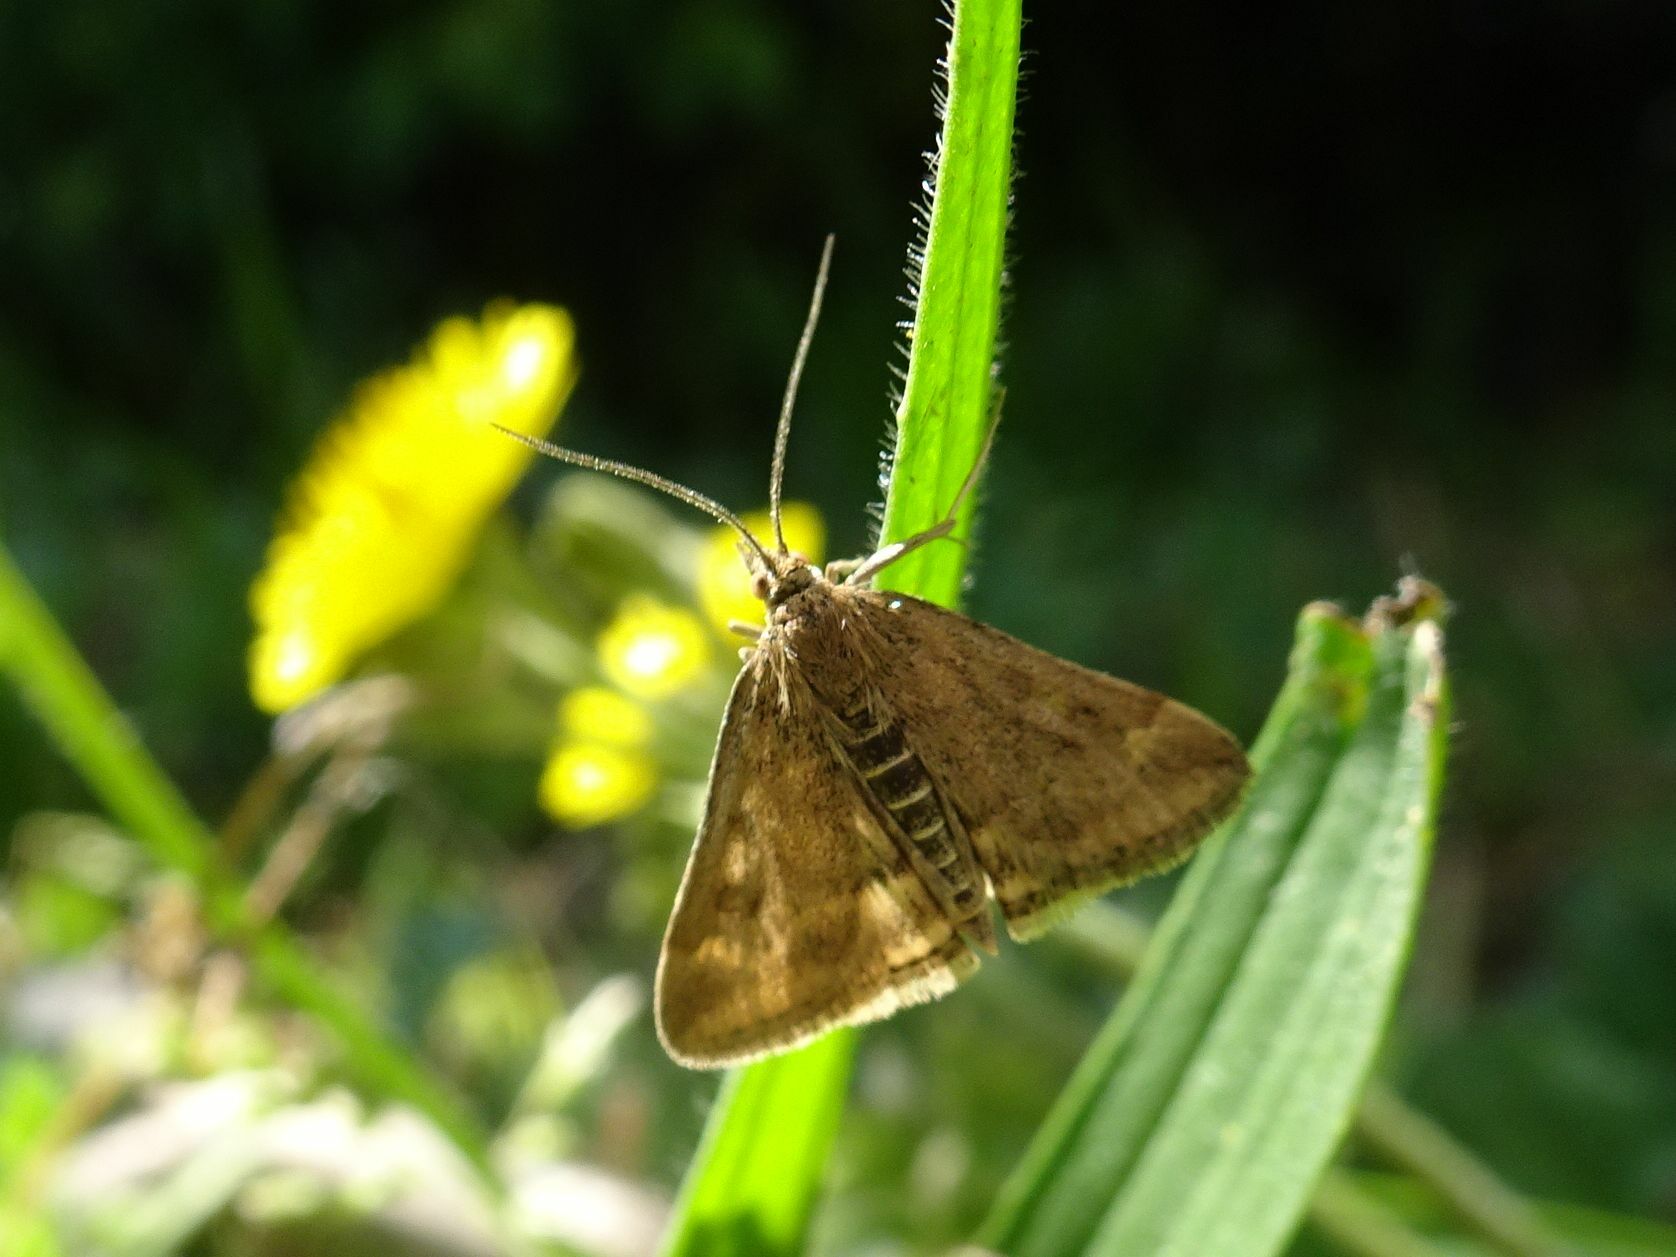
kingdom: Animalia
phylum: Arthropoda
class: Insecta
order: Lepidoptera
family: Crambidae
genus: Pyrausta
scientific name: Pyrausta despicata
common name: Straw-barred pearl
